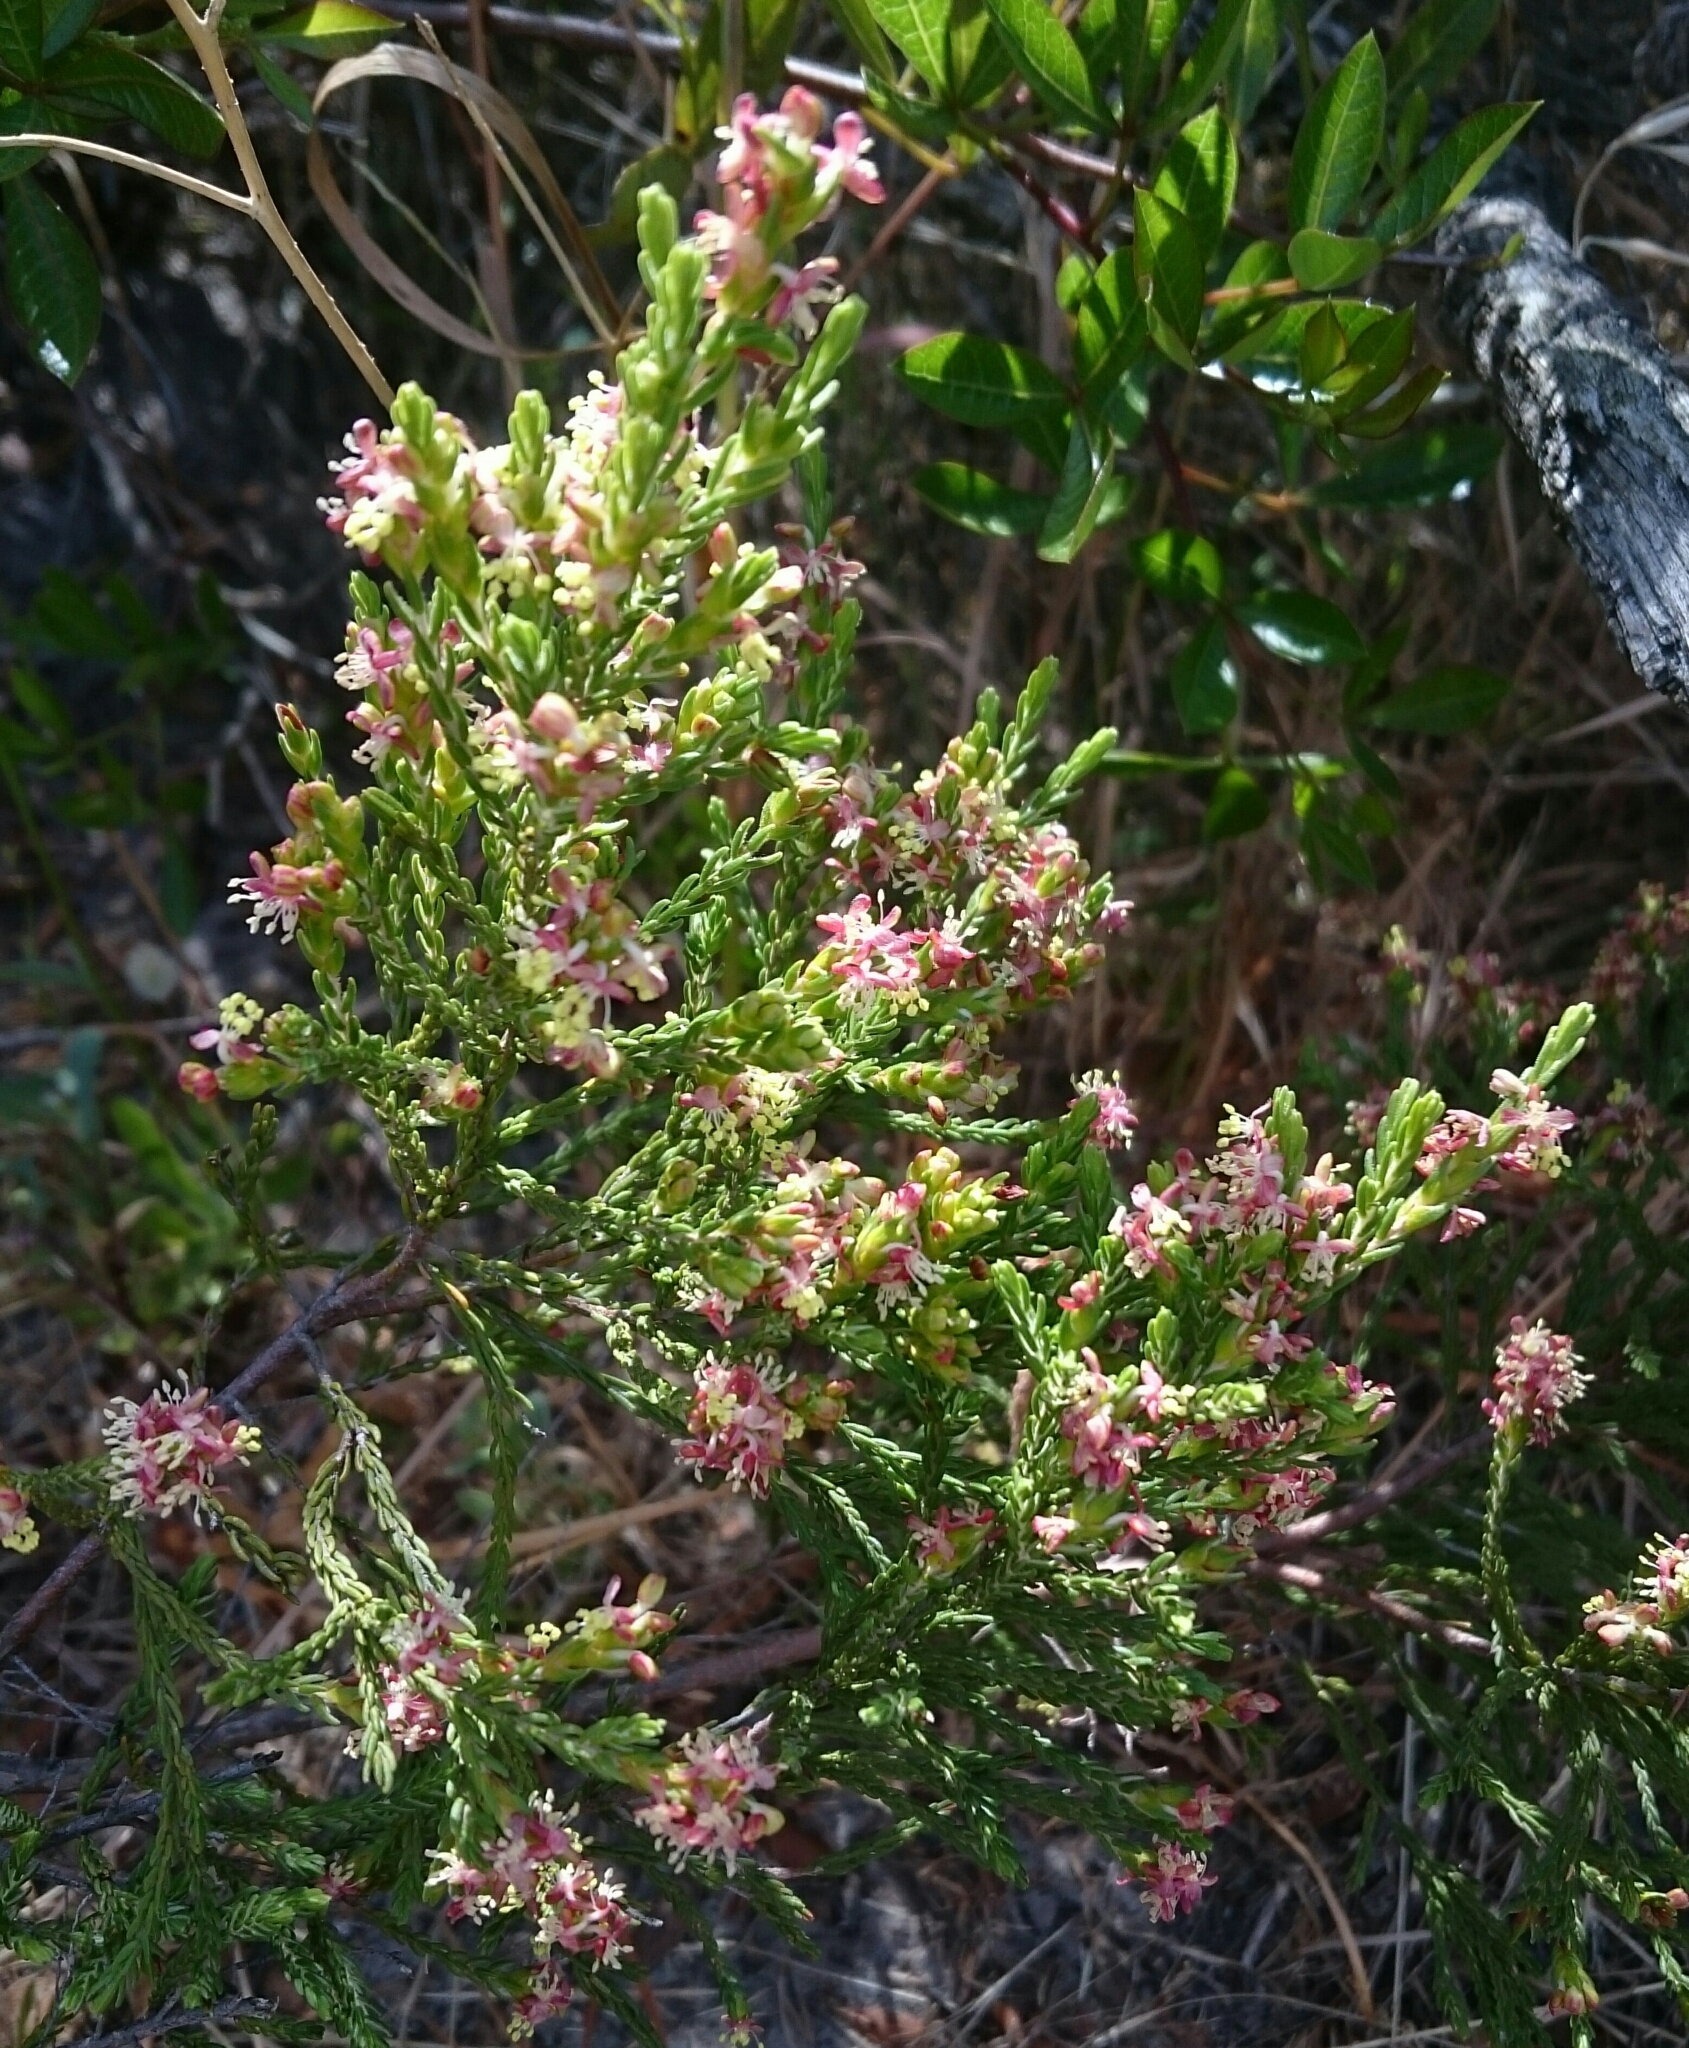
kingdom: Plantae
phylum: Tracheophyta
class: Magnoliopsida
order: Malvales
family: Thymelaeaceae
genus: Passerina
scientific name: Passerina corymbosa
